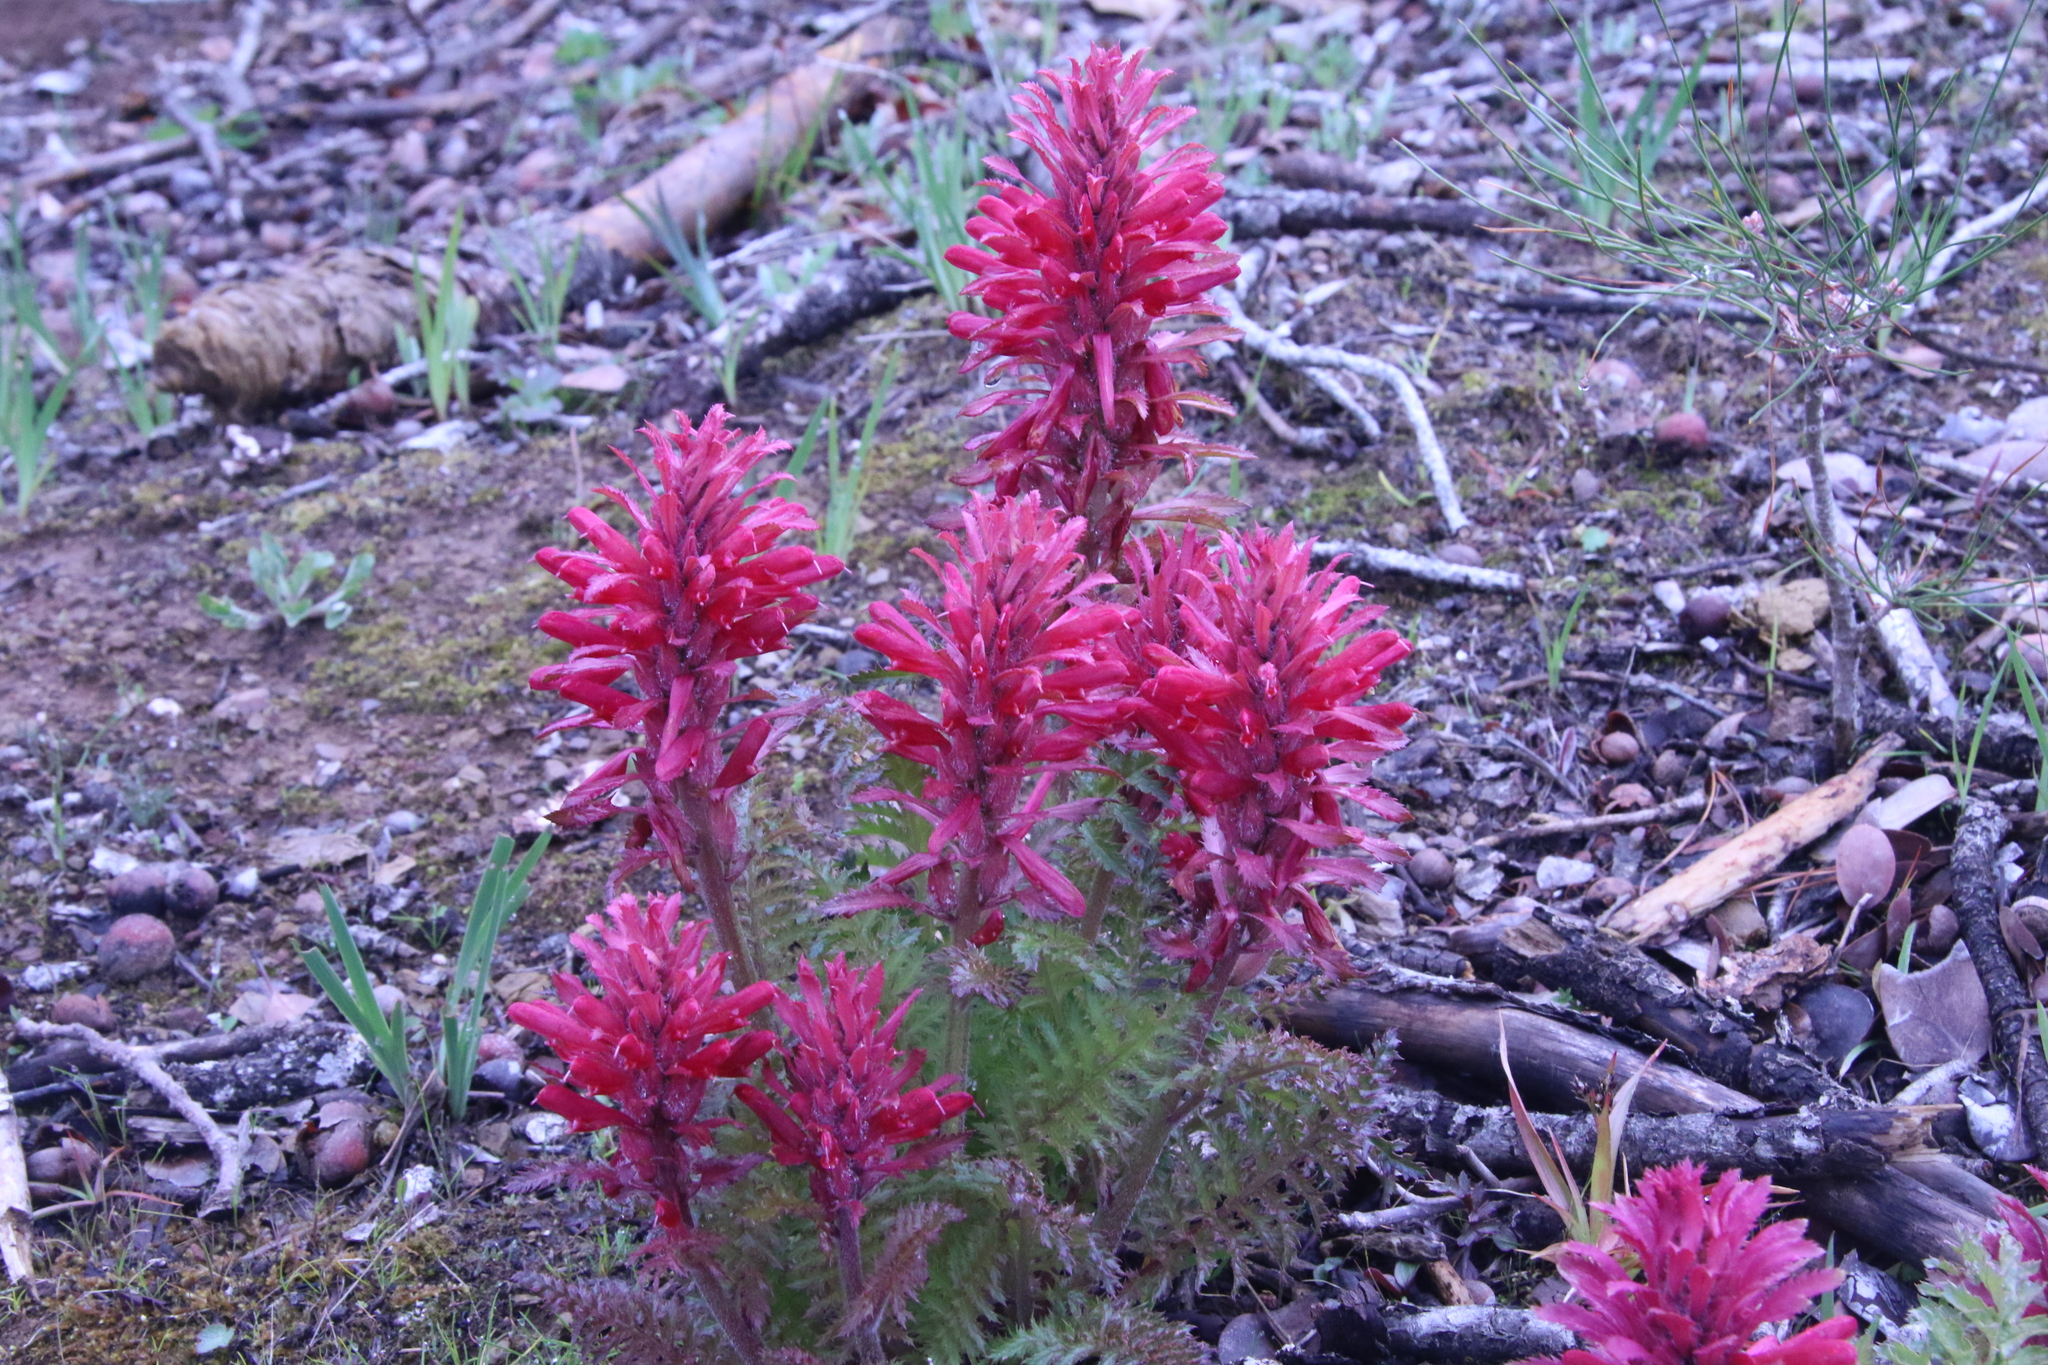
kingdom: Plantae
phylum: Tracheophyta
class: Magnoliopsida
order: Lamiales
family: Orobanchaceae
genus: Pedicularis
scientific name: Pedicularis densiflora
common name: Indian warrior
